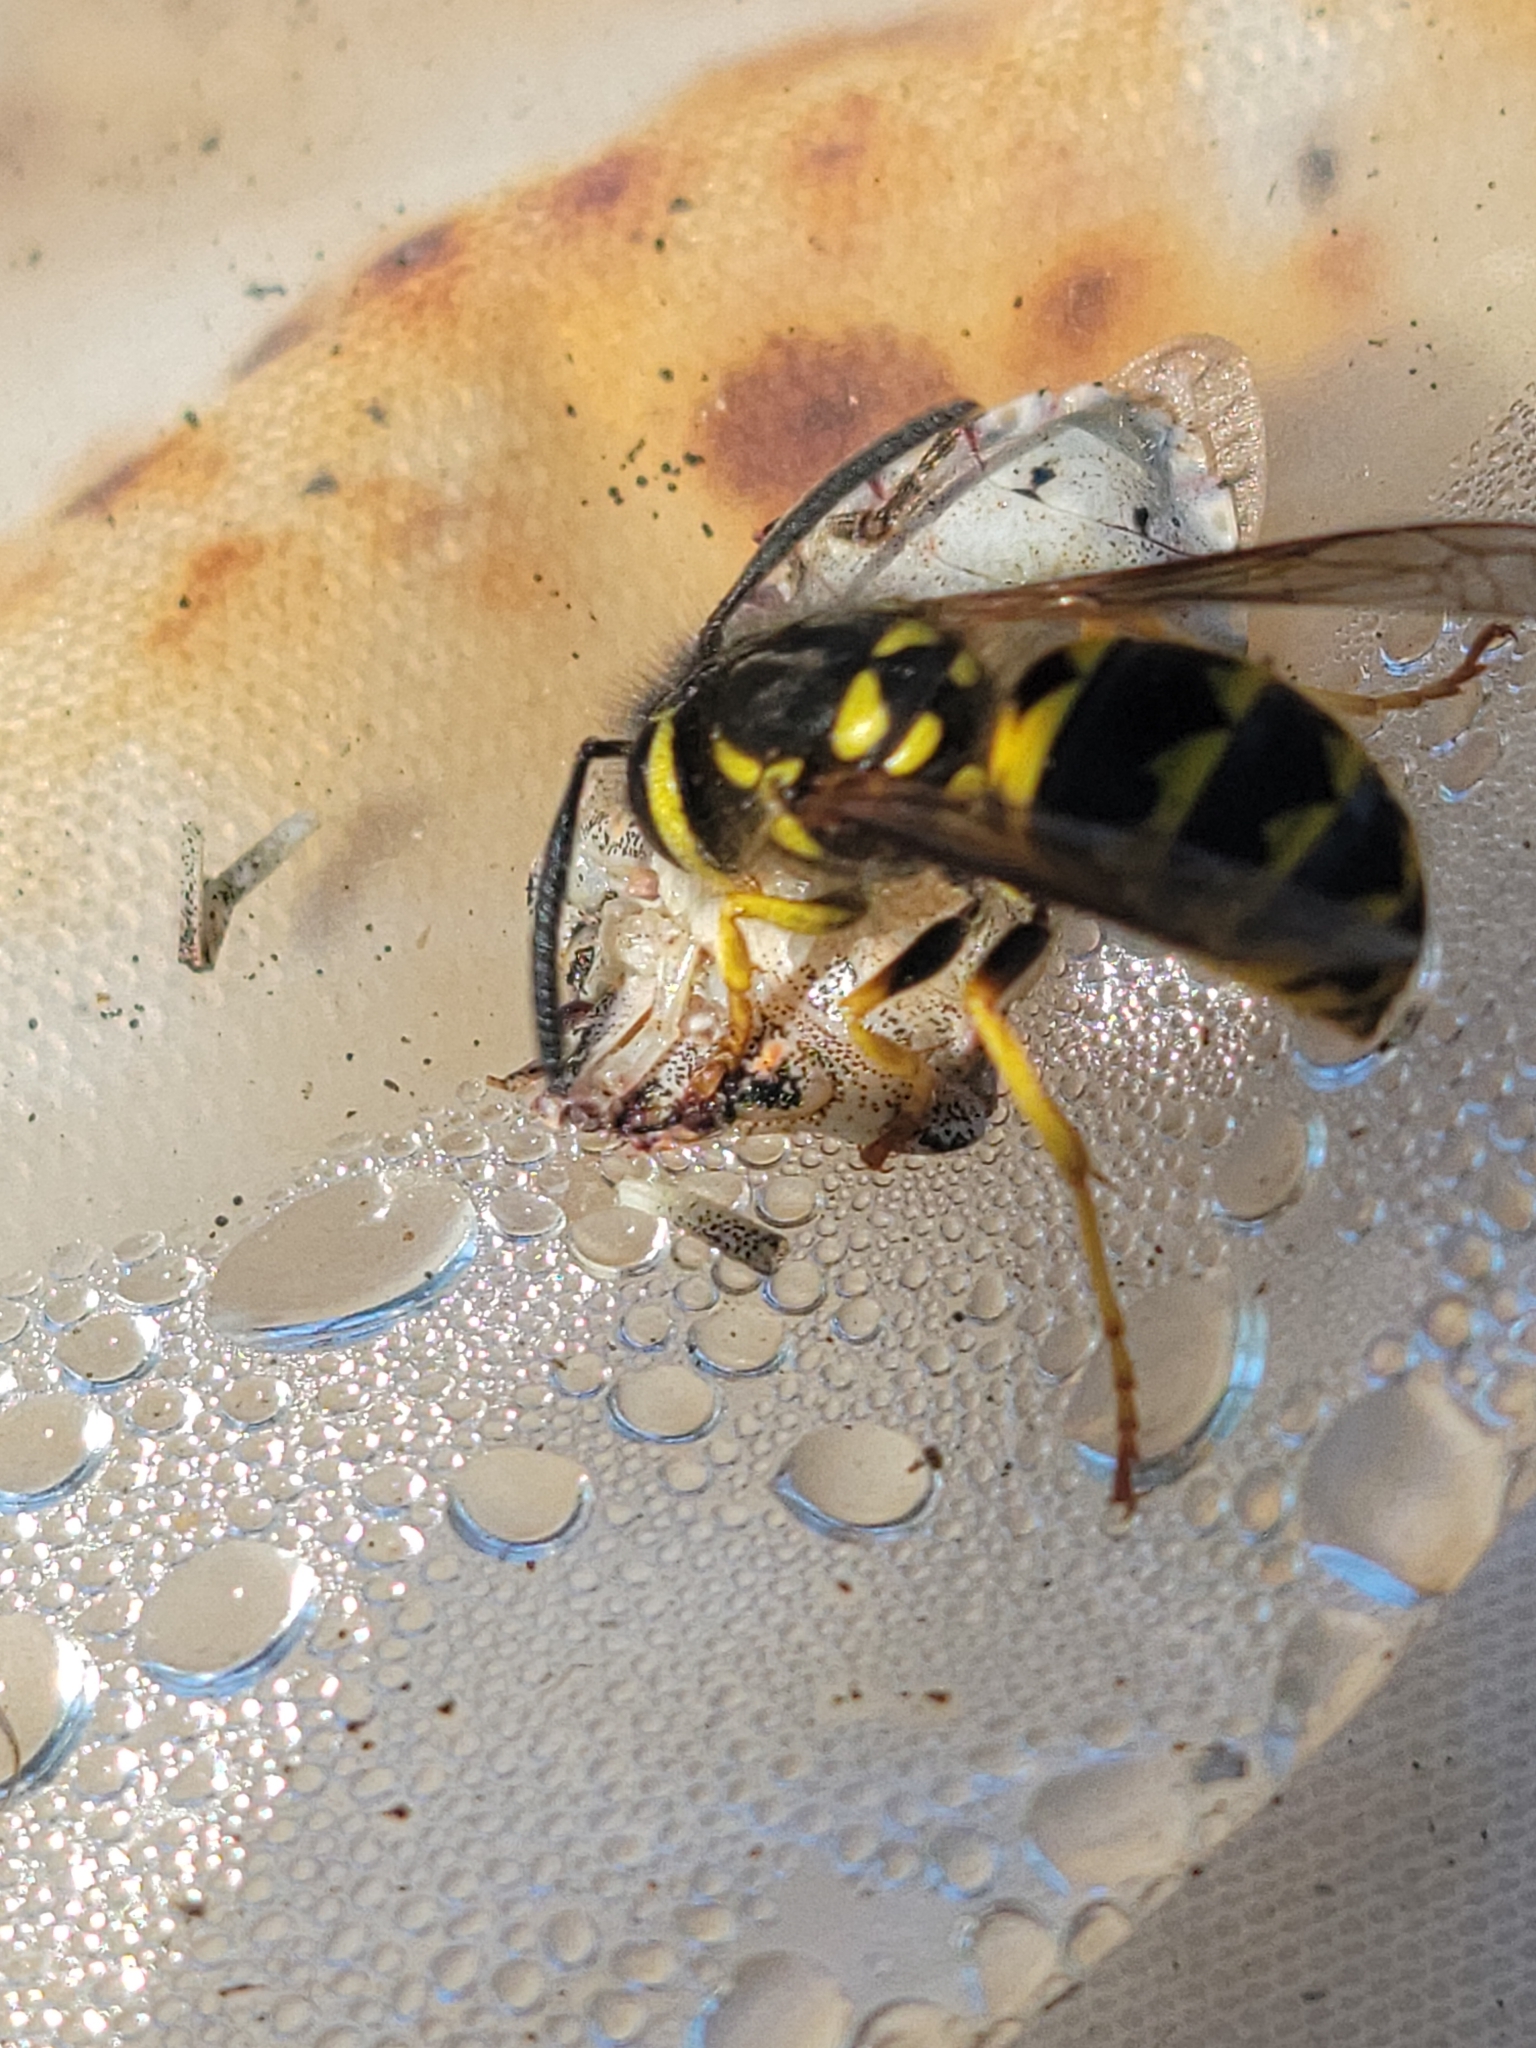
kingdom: Animalia
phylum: Arthropoda
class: Insecta
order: Hymenoptera
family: Vespidae
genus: Vespula
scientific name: Vespula pensylvanica
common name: Western yellowjacket
